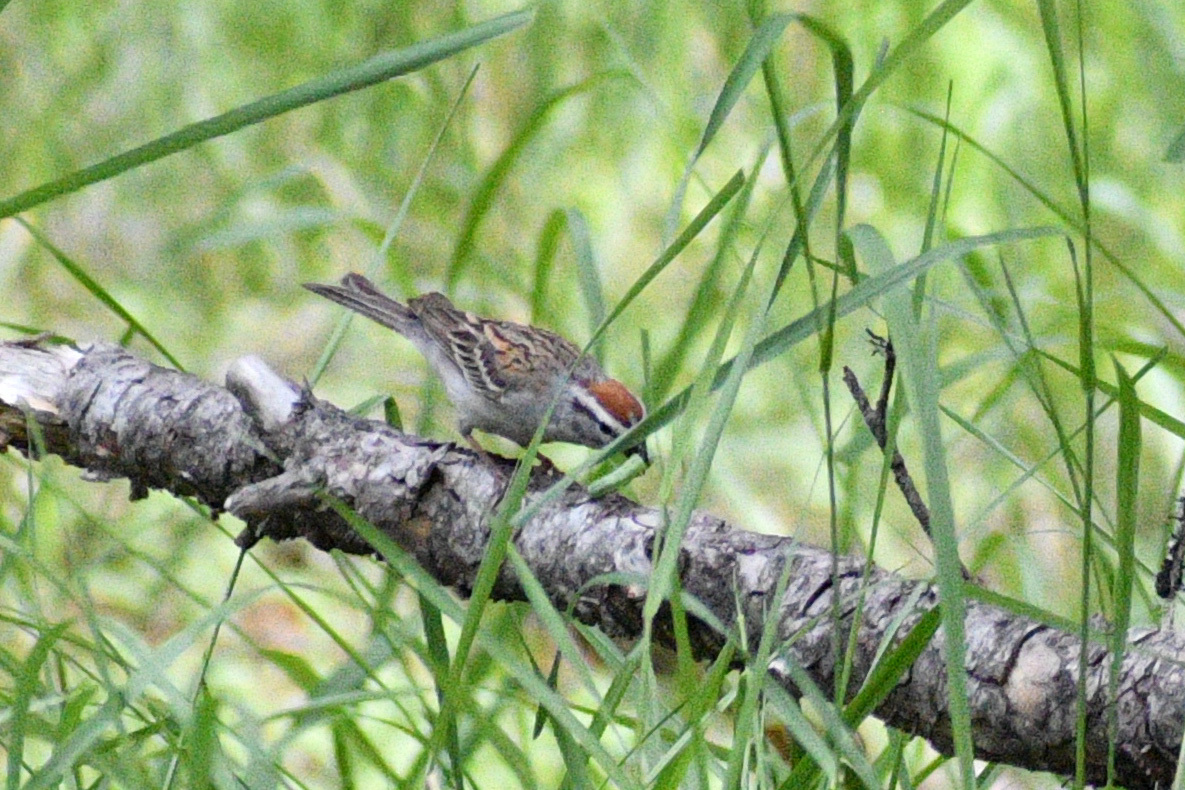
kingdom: Animalia
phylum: Chordata
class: Aves
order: Passeriformes
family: Passerellidae
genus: Spizella
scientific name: Spizella passerina
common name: Chipping sparrow
